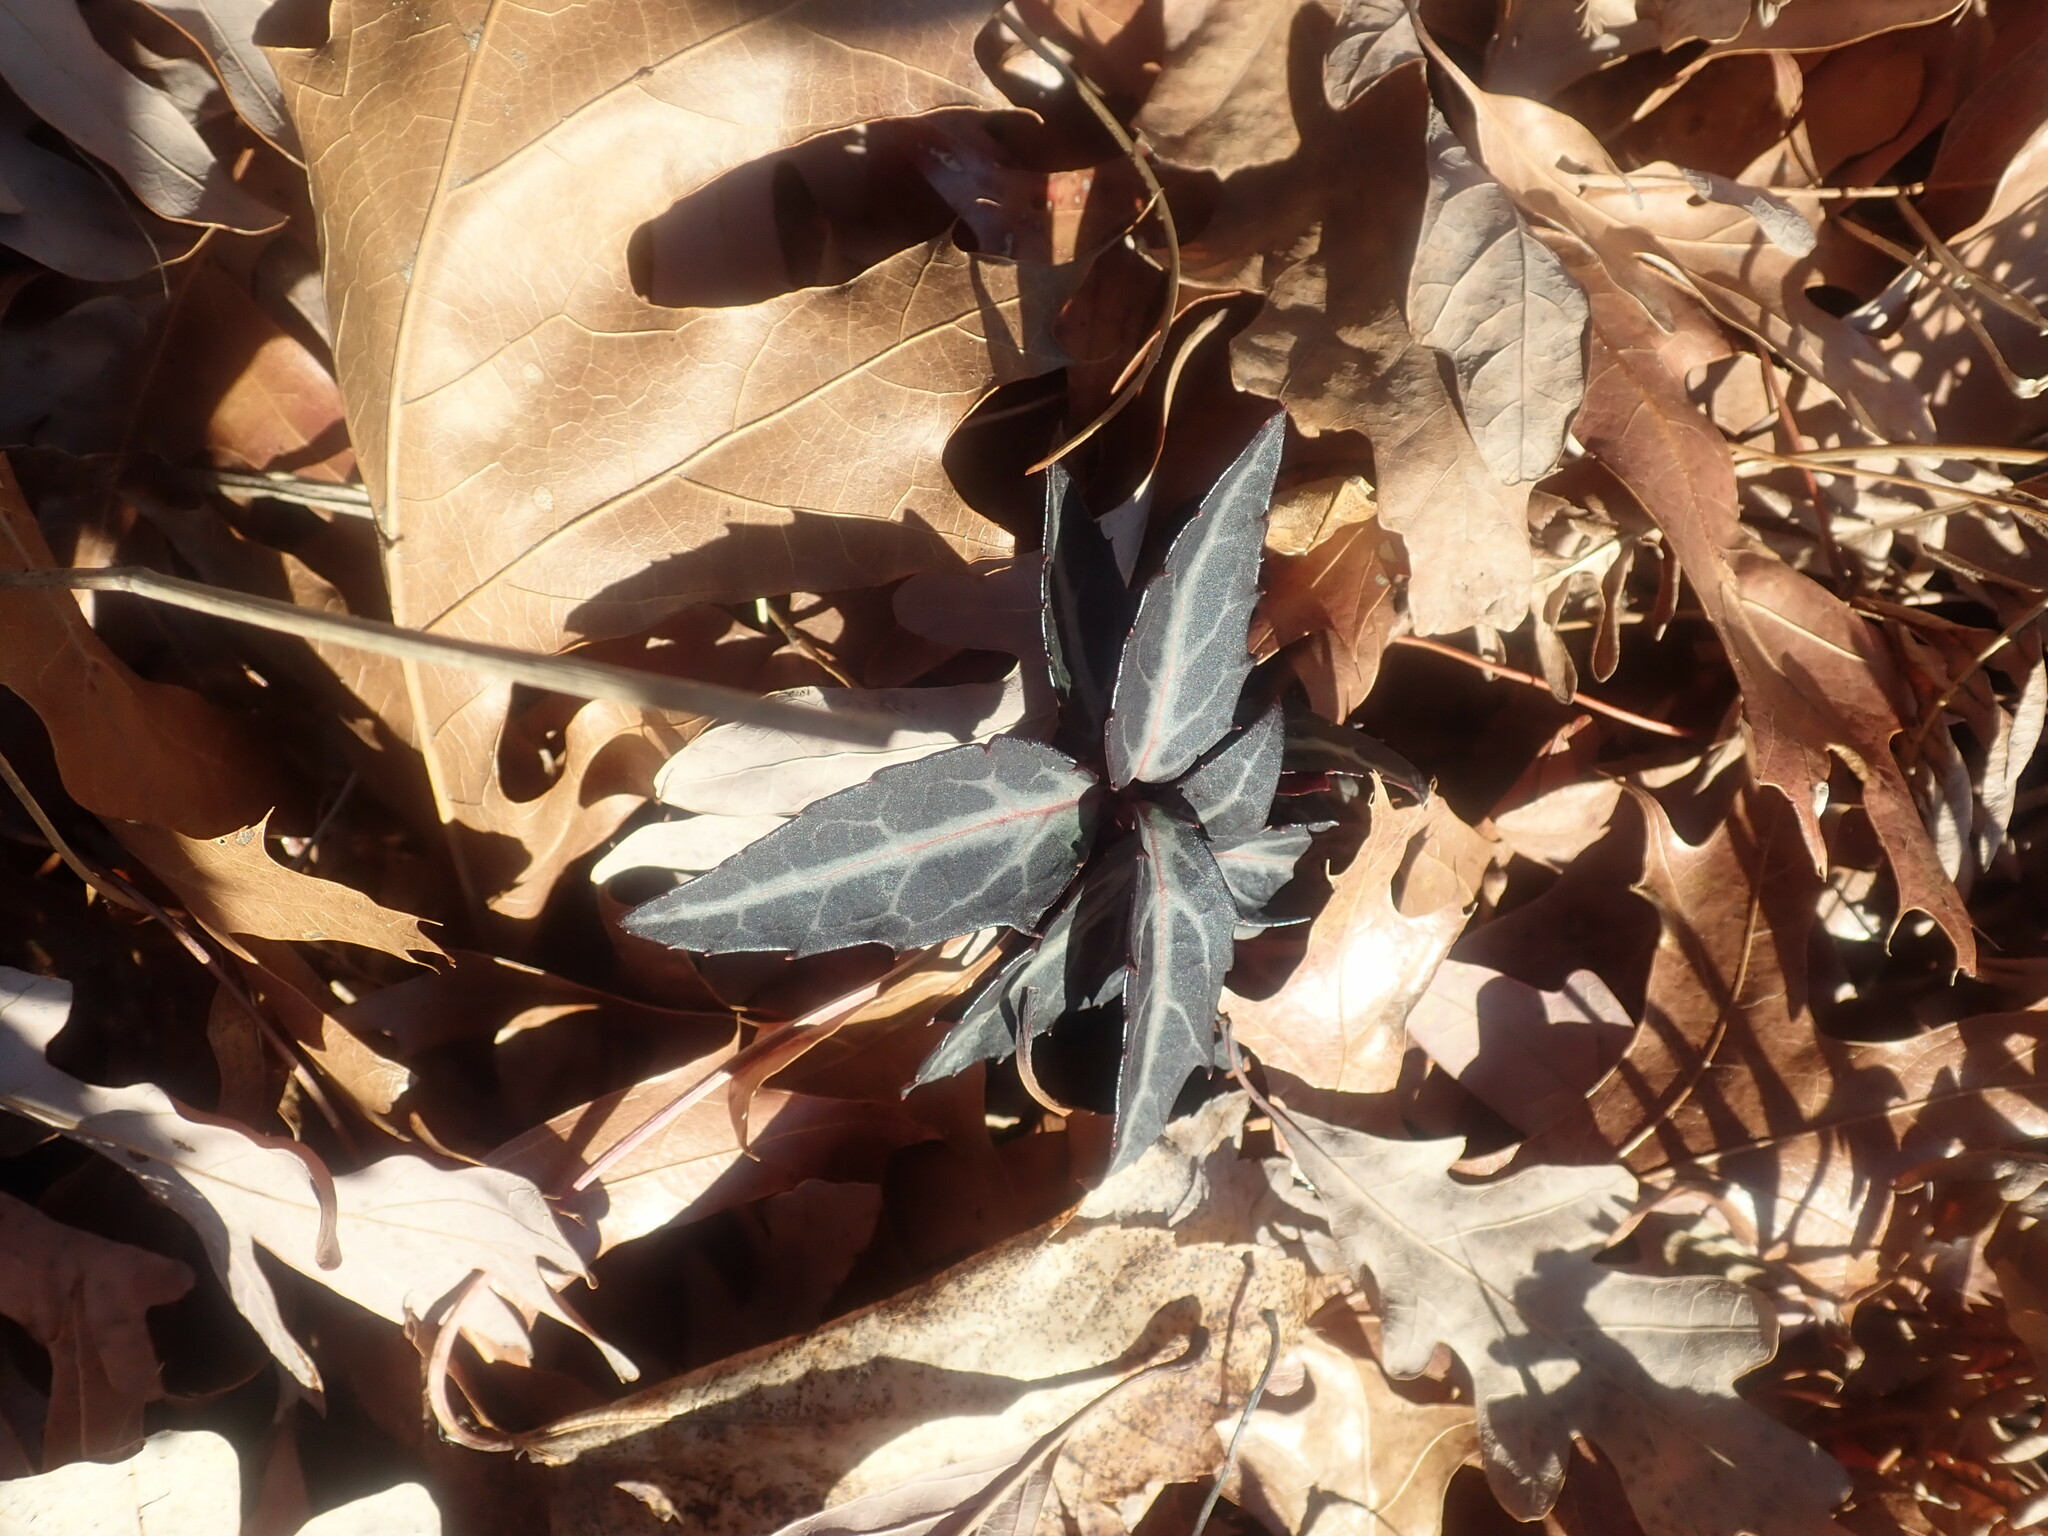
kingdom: Plantae
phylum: Tracheophyta
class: Magnoliopsida
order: Ericales
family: Ericaceae
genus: Chimaphila
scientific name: Chimaphila maculata
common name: Spotted pipsissewa
